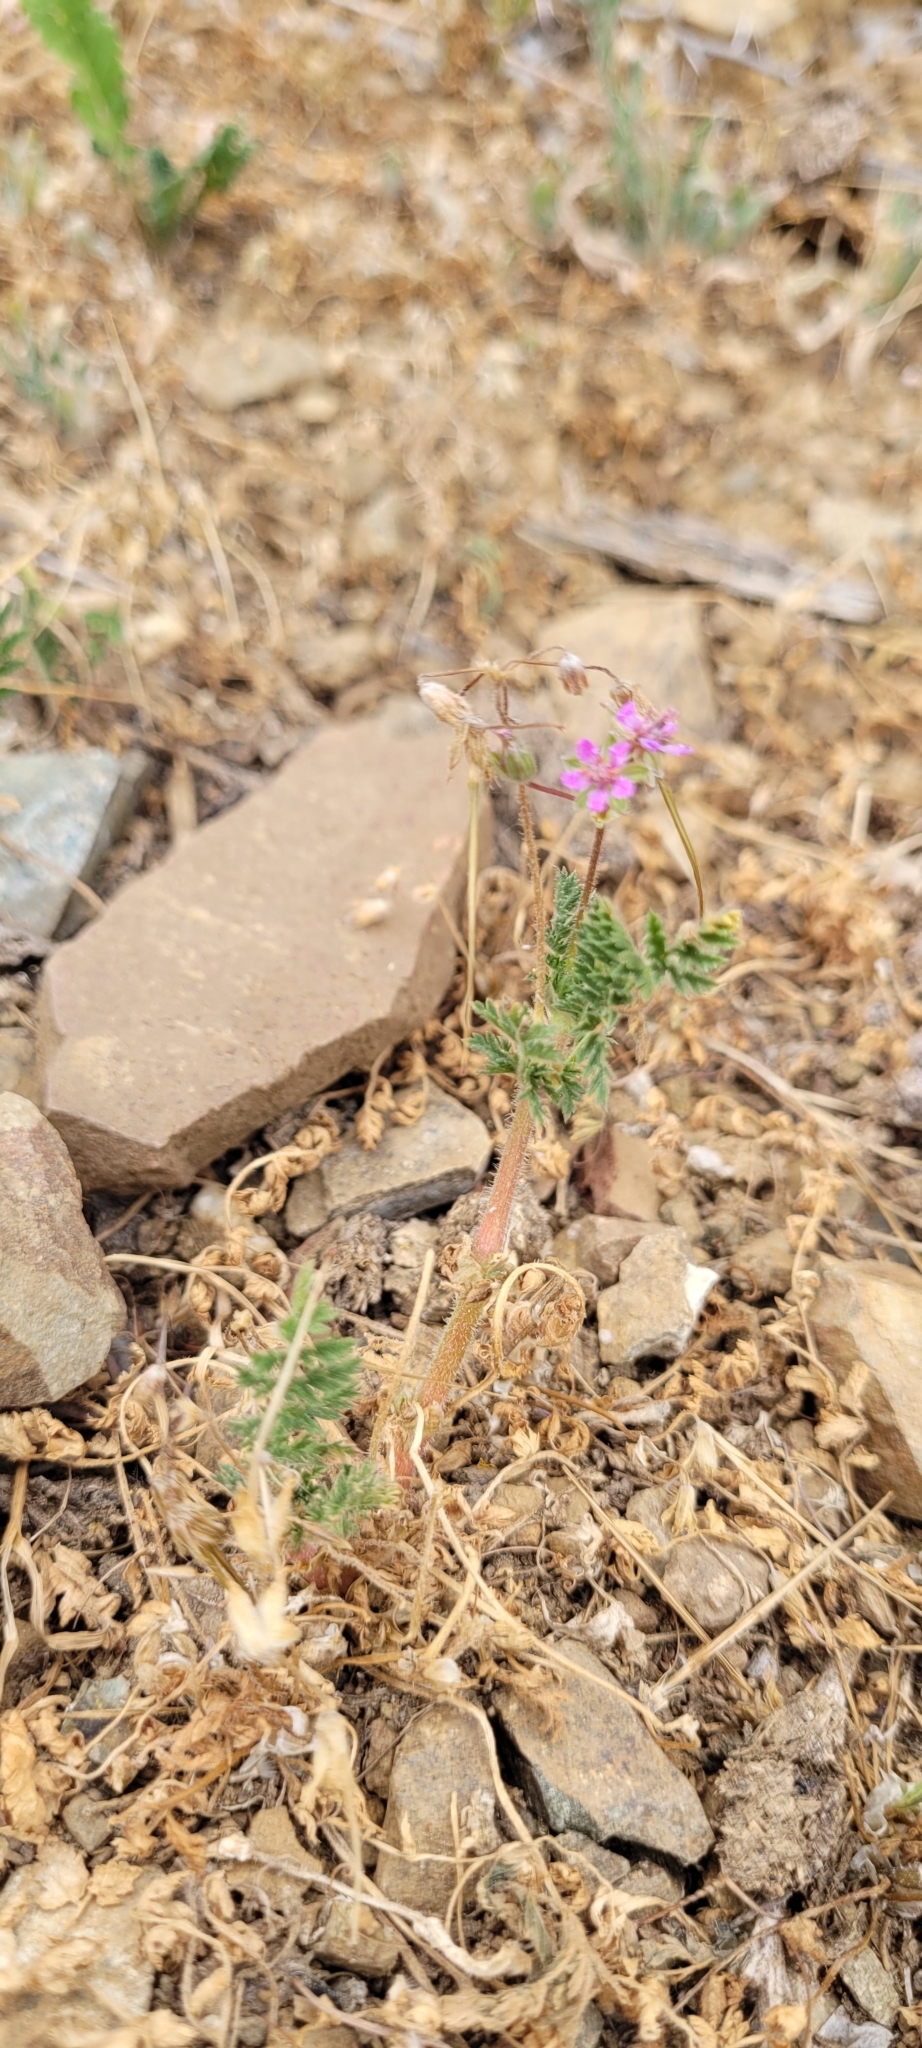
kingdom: Plantae
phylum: Tracheophyta
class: Magnoliopsida
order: Geraniales
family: Geraniaceae
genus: Erodium
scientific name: Erodium cicutarium
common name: Common stork's-bill
